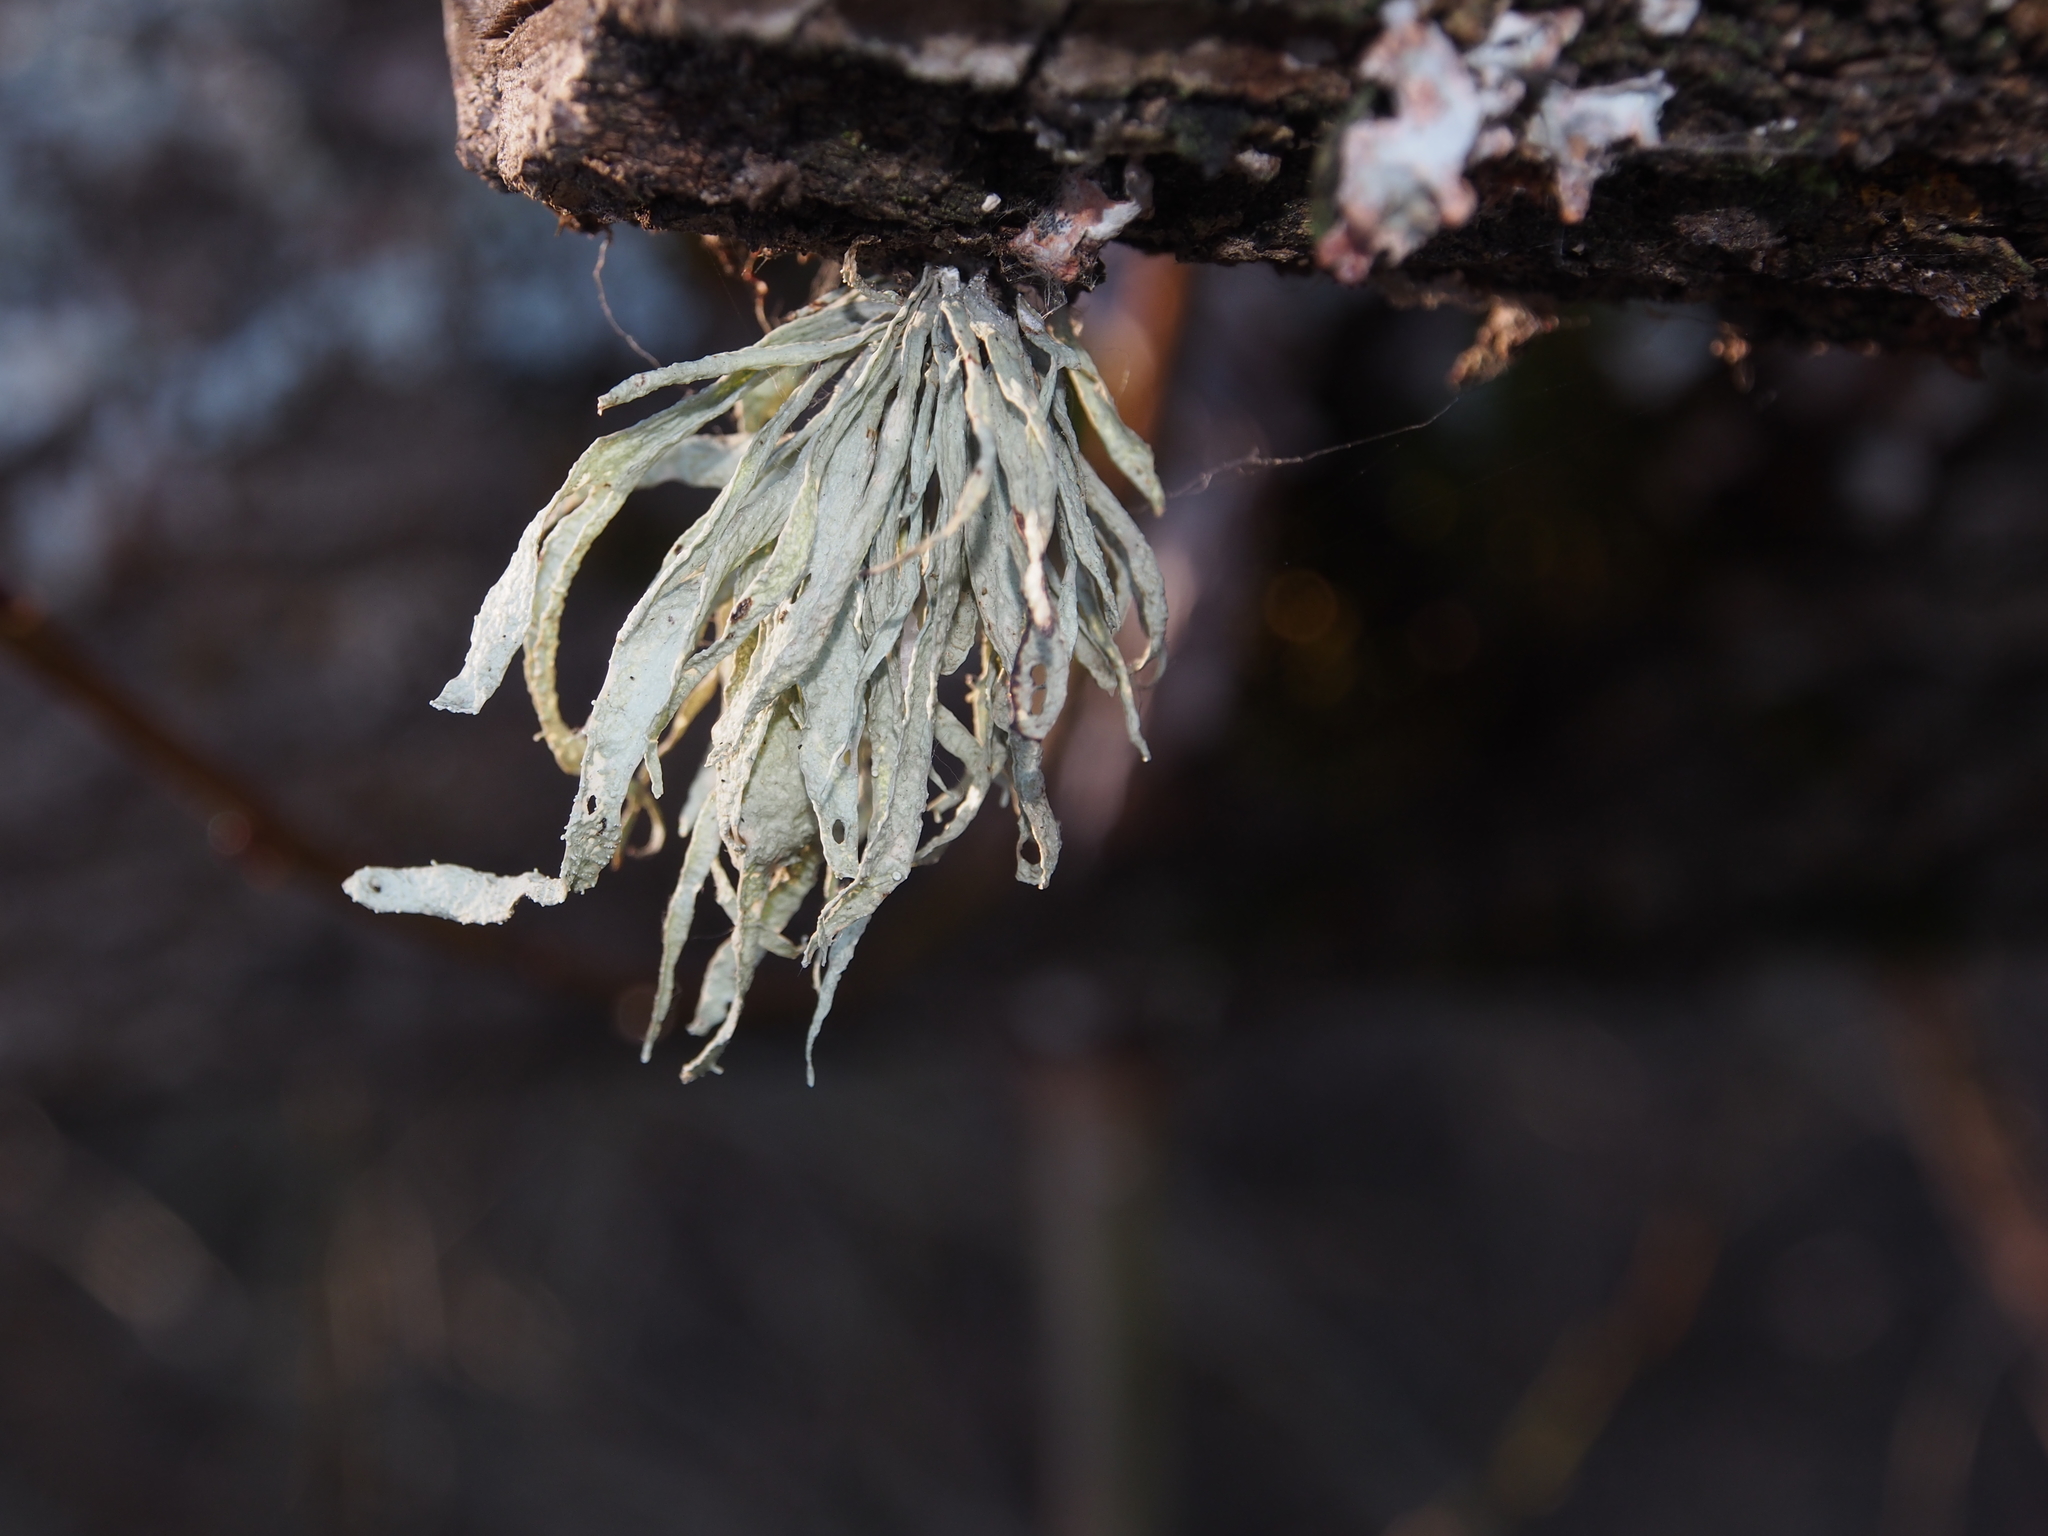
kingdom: Fungi
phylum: Ascomycota
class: Lecanoromycetes
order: Lecanorales
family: Ramalinaceae
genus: Ramalina
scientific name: Ramalina fraxinea
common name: Cartilage lichen
